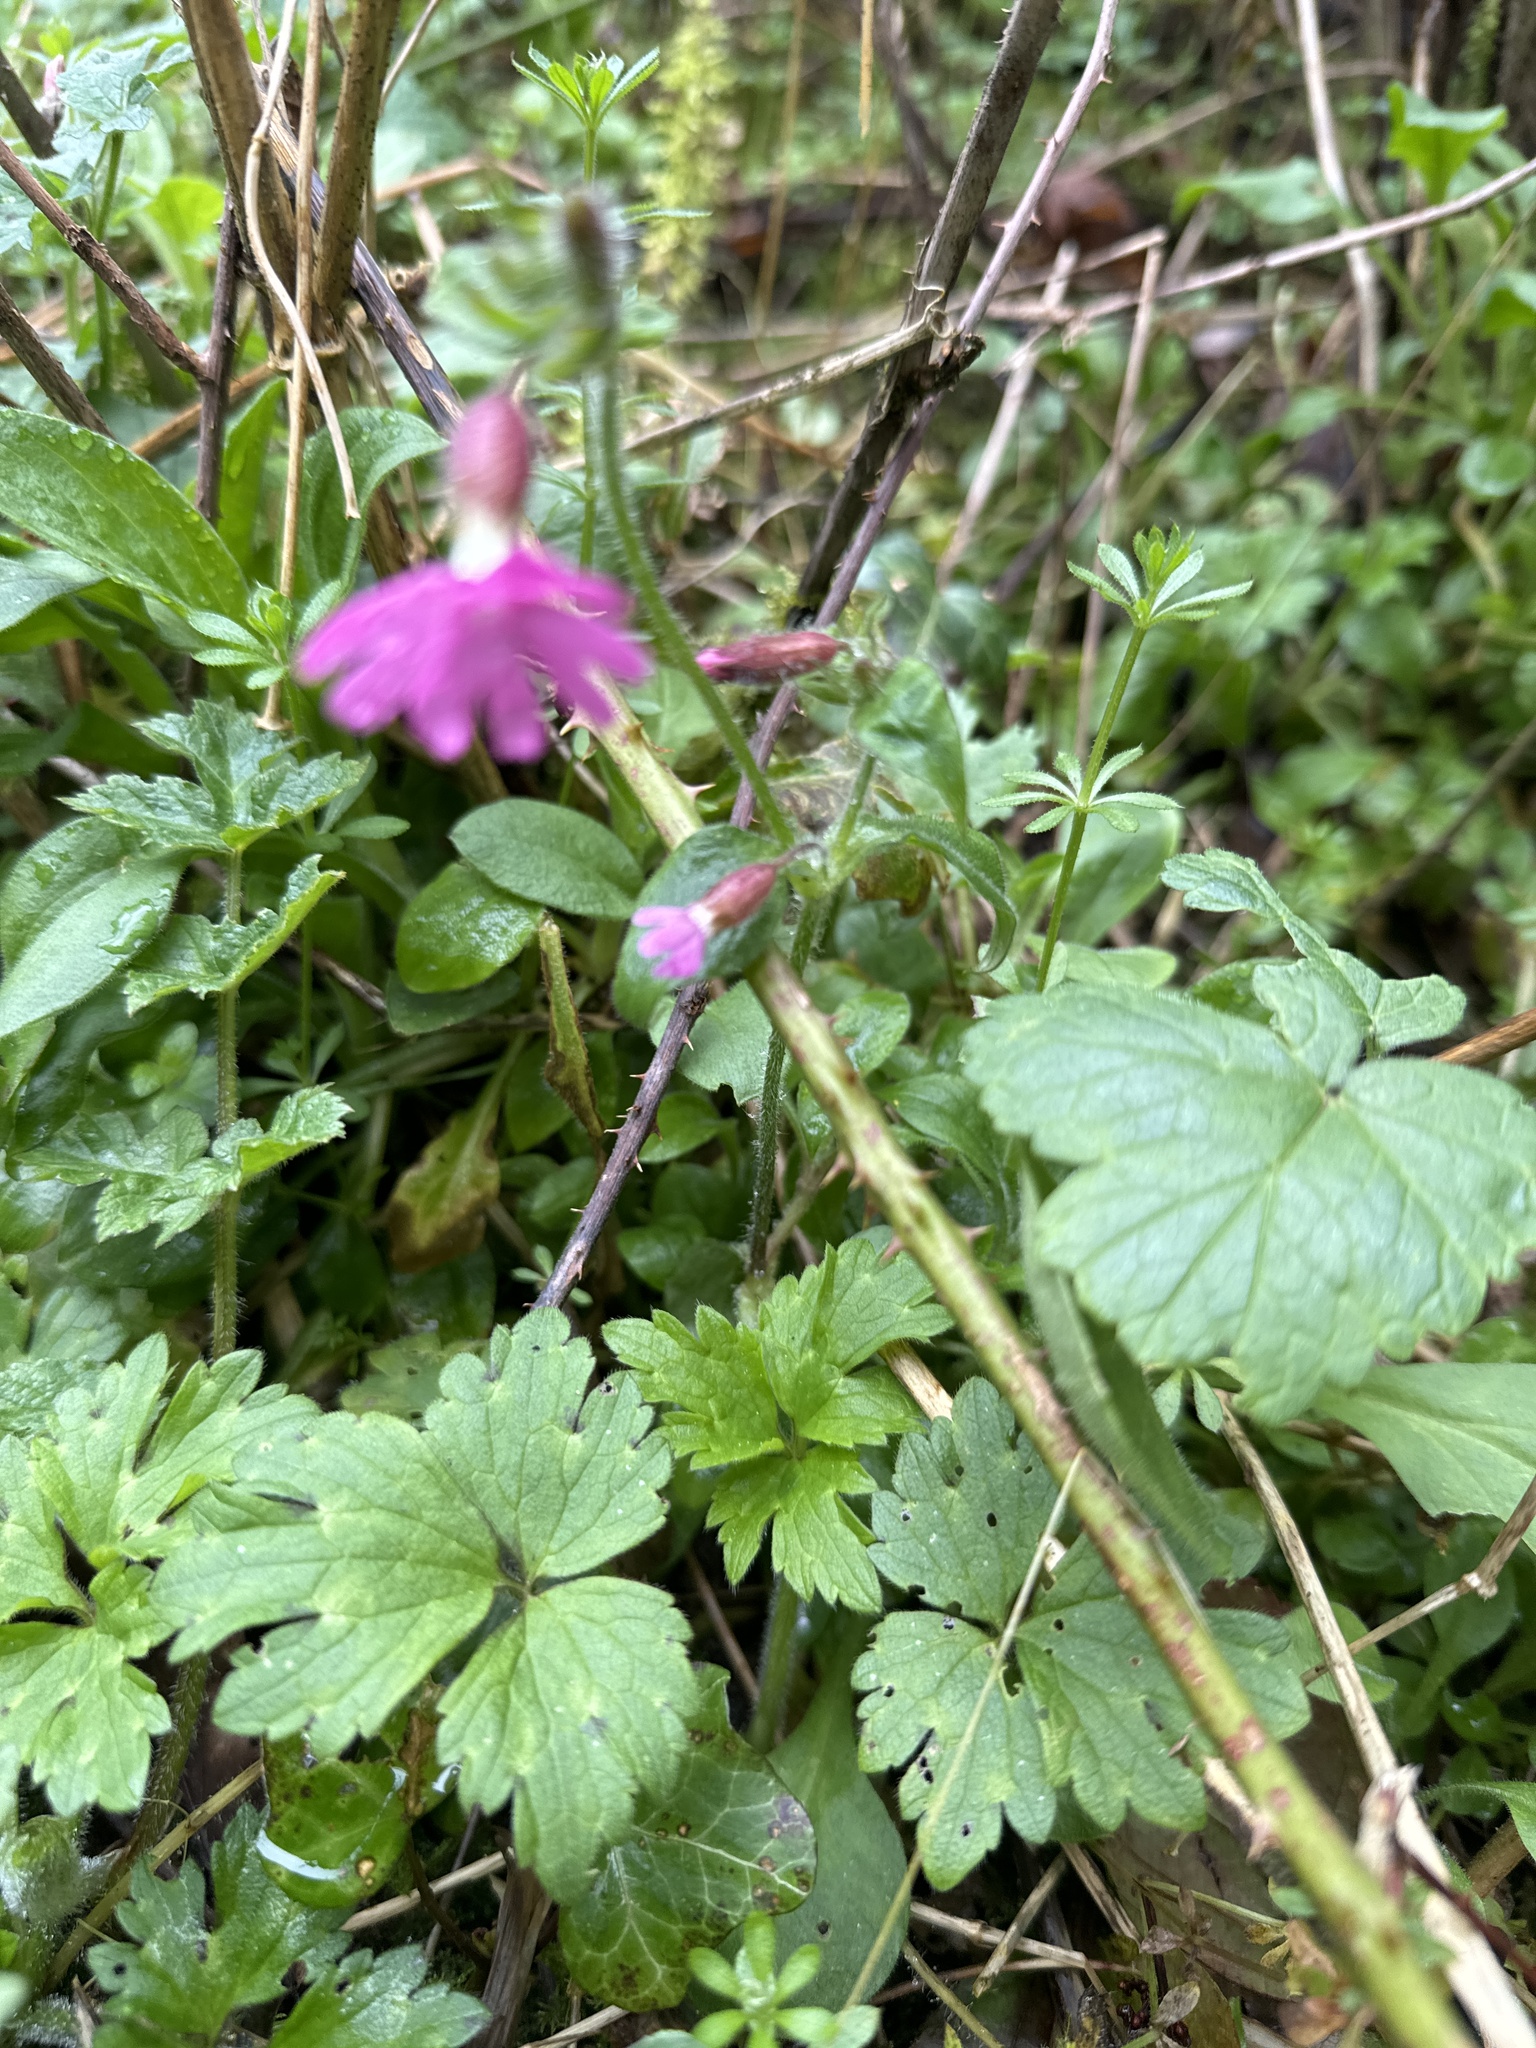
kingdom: Plantae
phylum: Tracheophyta
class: Magnoliopsida
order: Caryophyllales
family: Caryophyllaceae
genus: Silene
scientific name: Silene dioica
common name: Red campion
